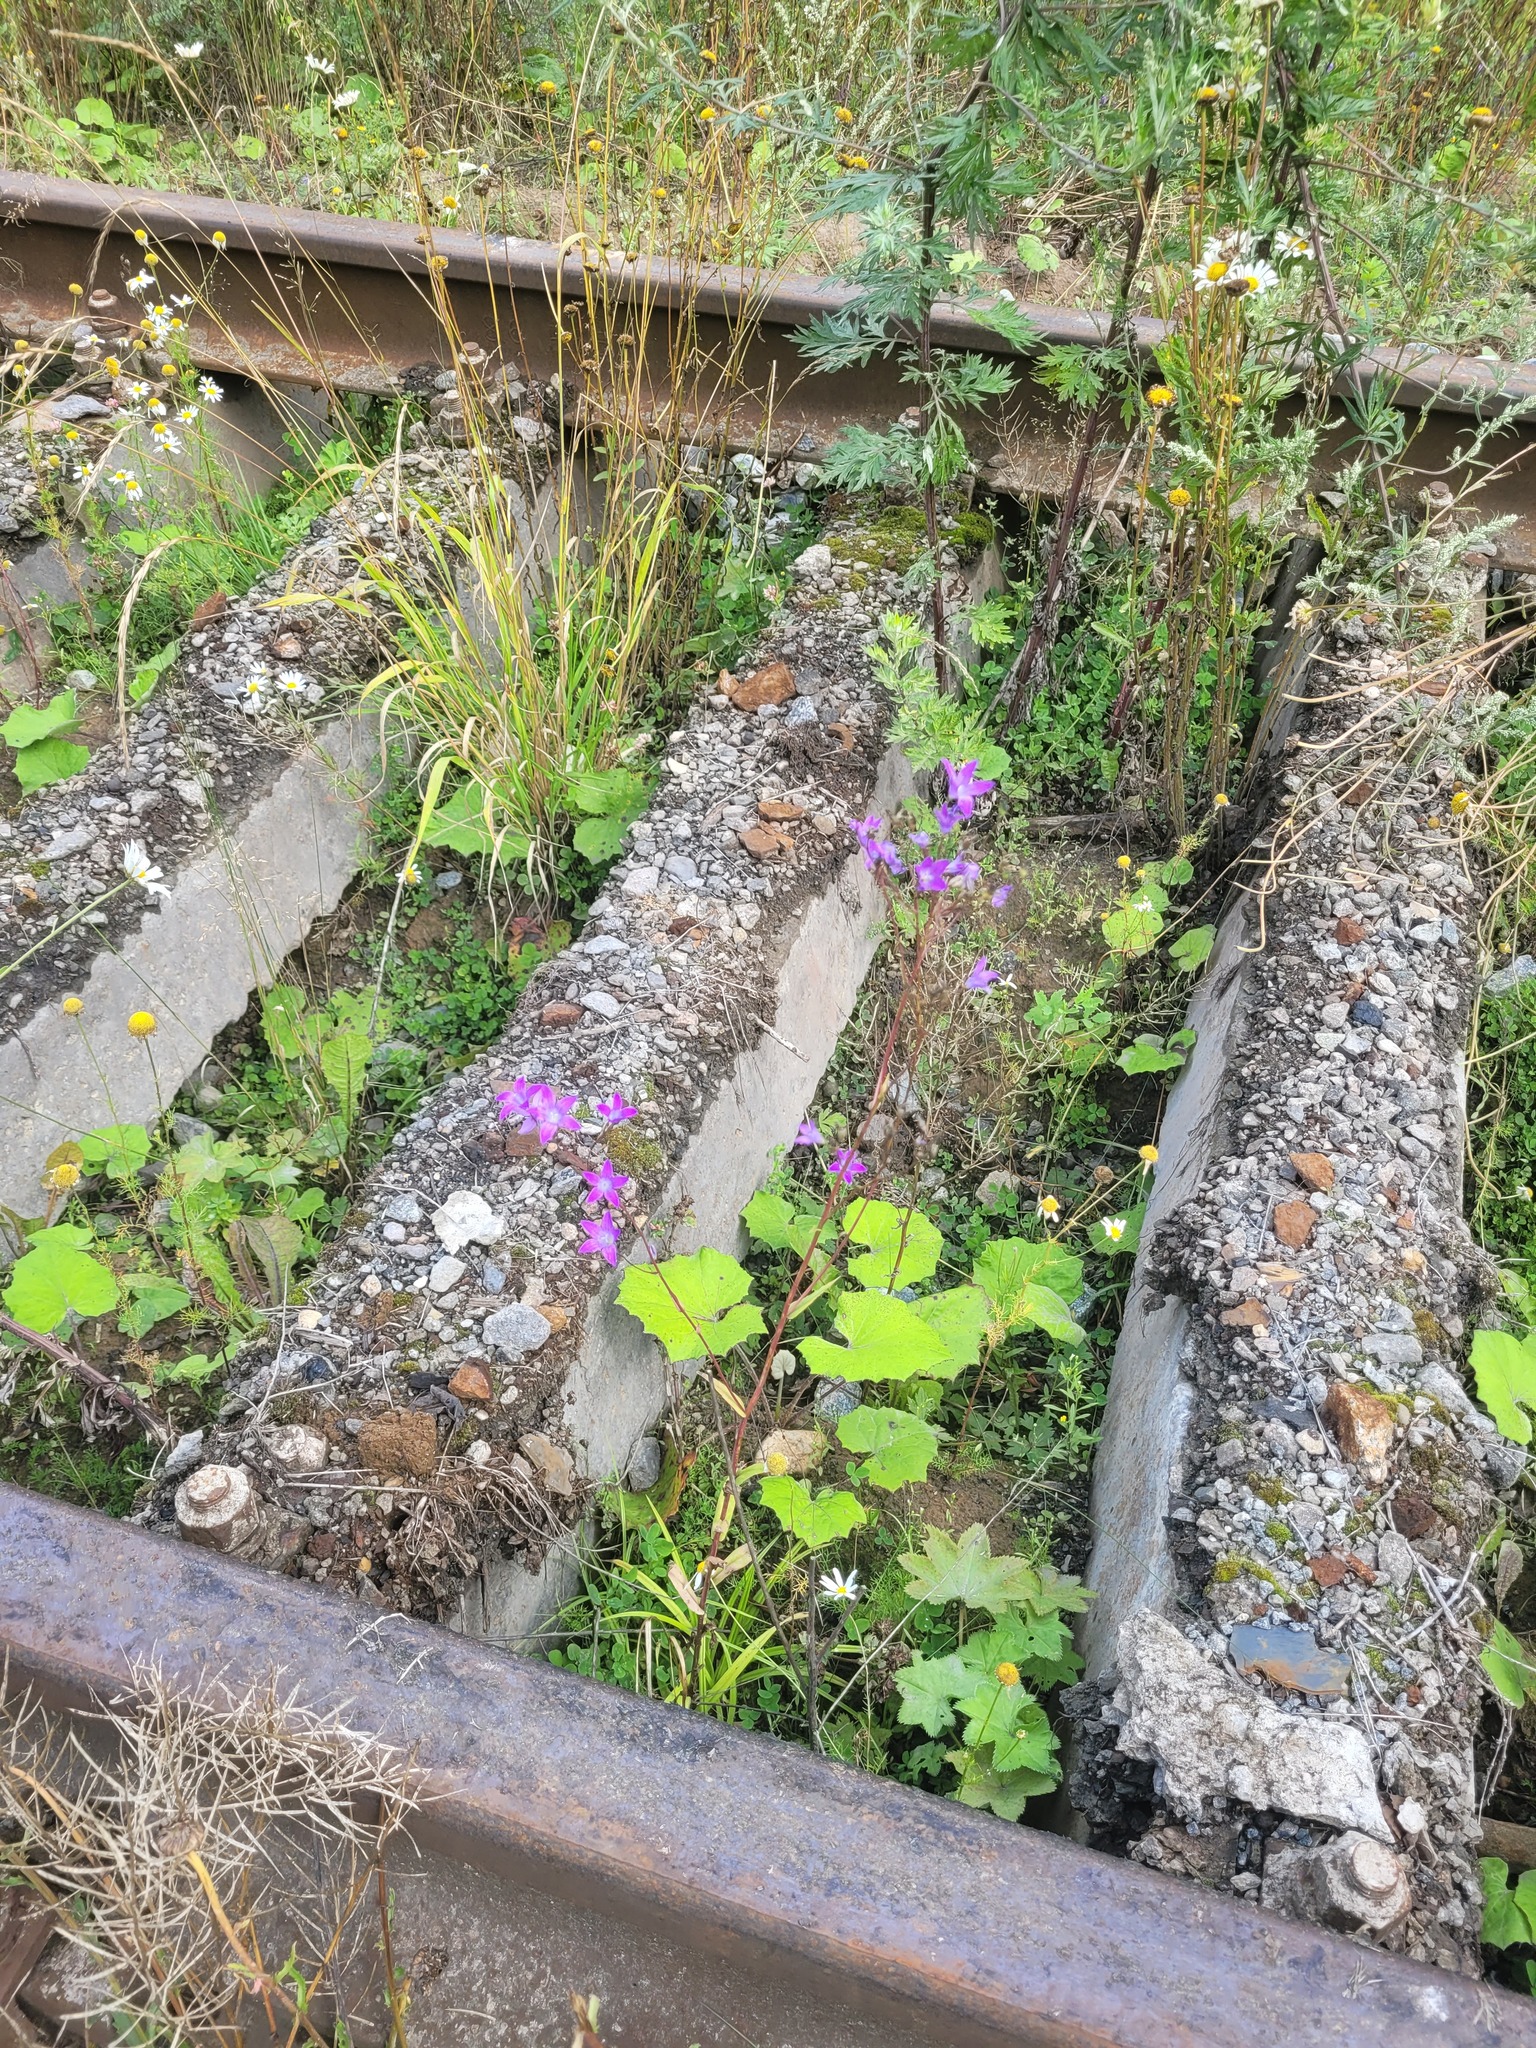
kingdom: Plantae
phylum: Tracheophyta
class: Magnoliopsida
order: Asterales
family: Campanulaceae
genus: Campanula
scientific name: Campanula patula
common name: Spreading bellflower
